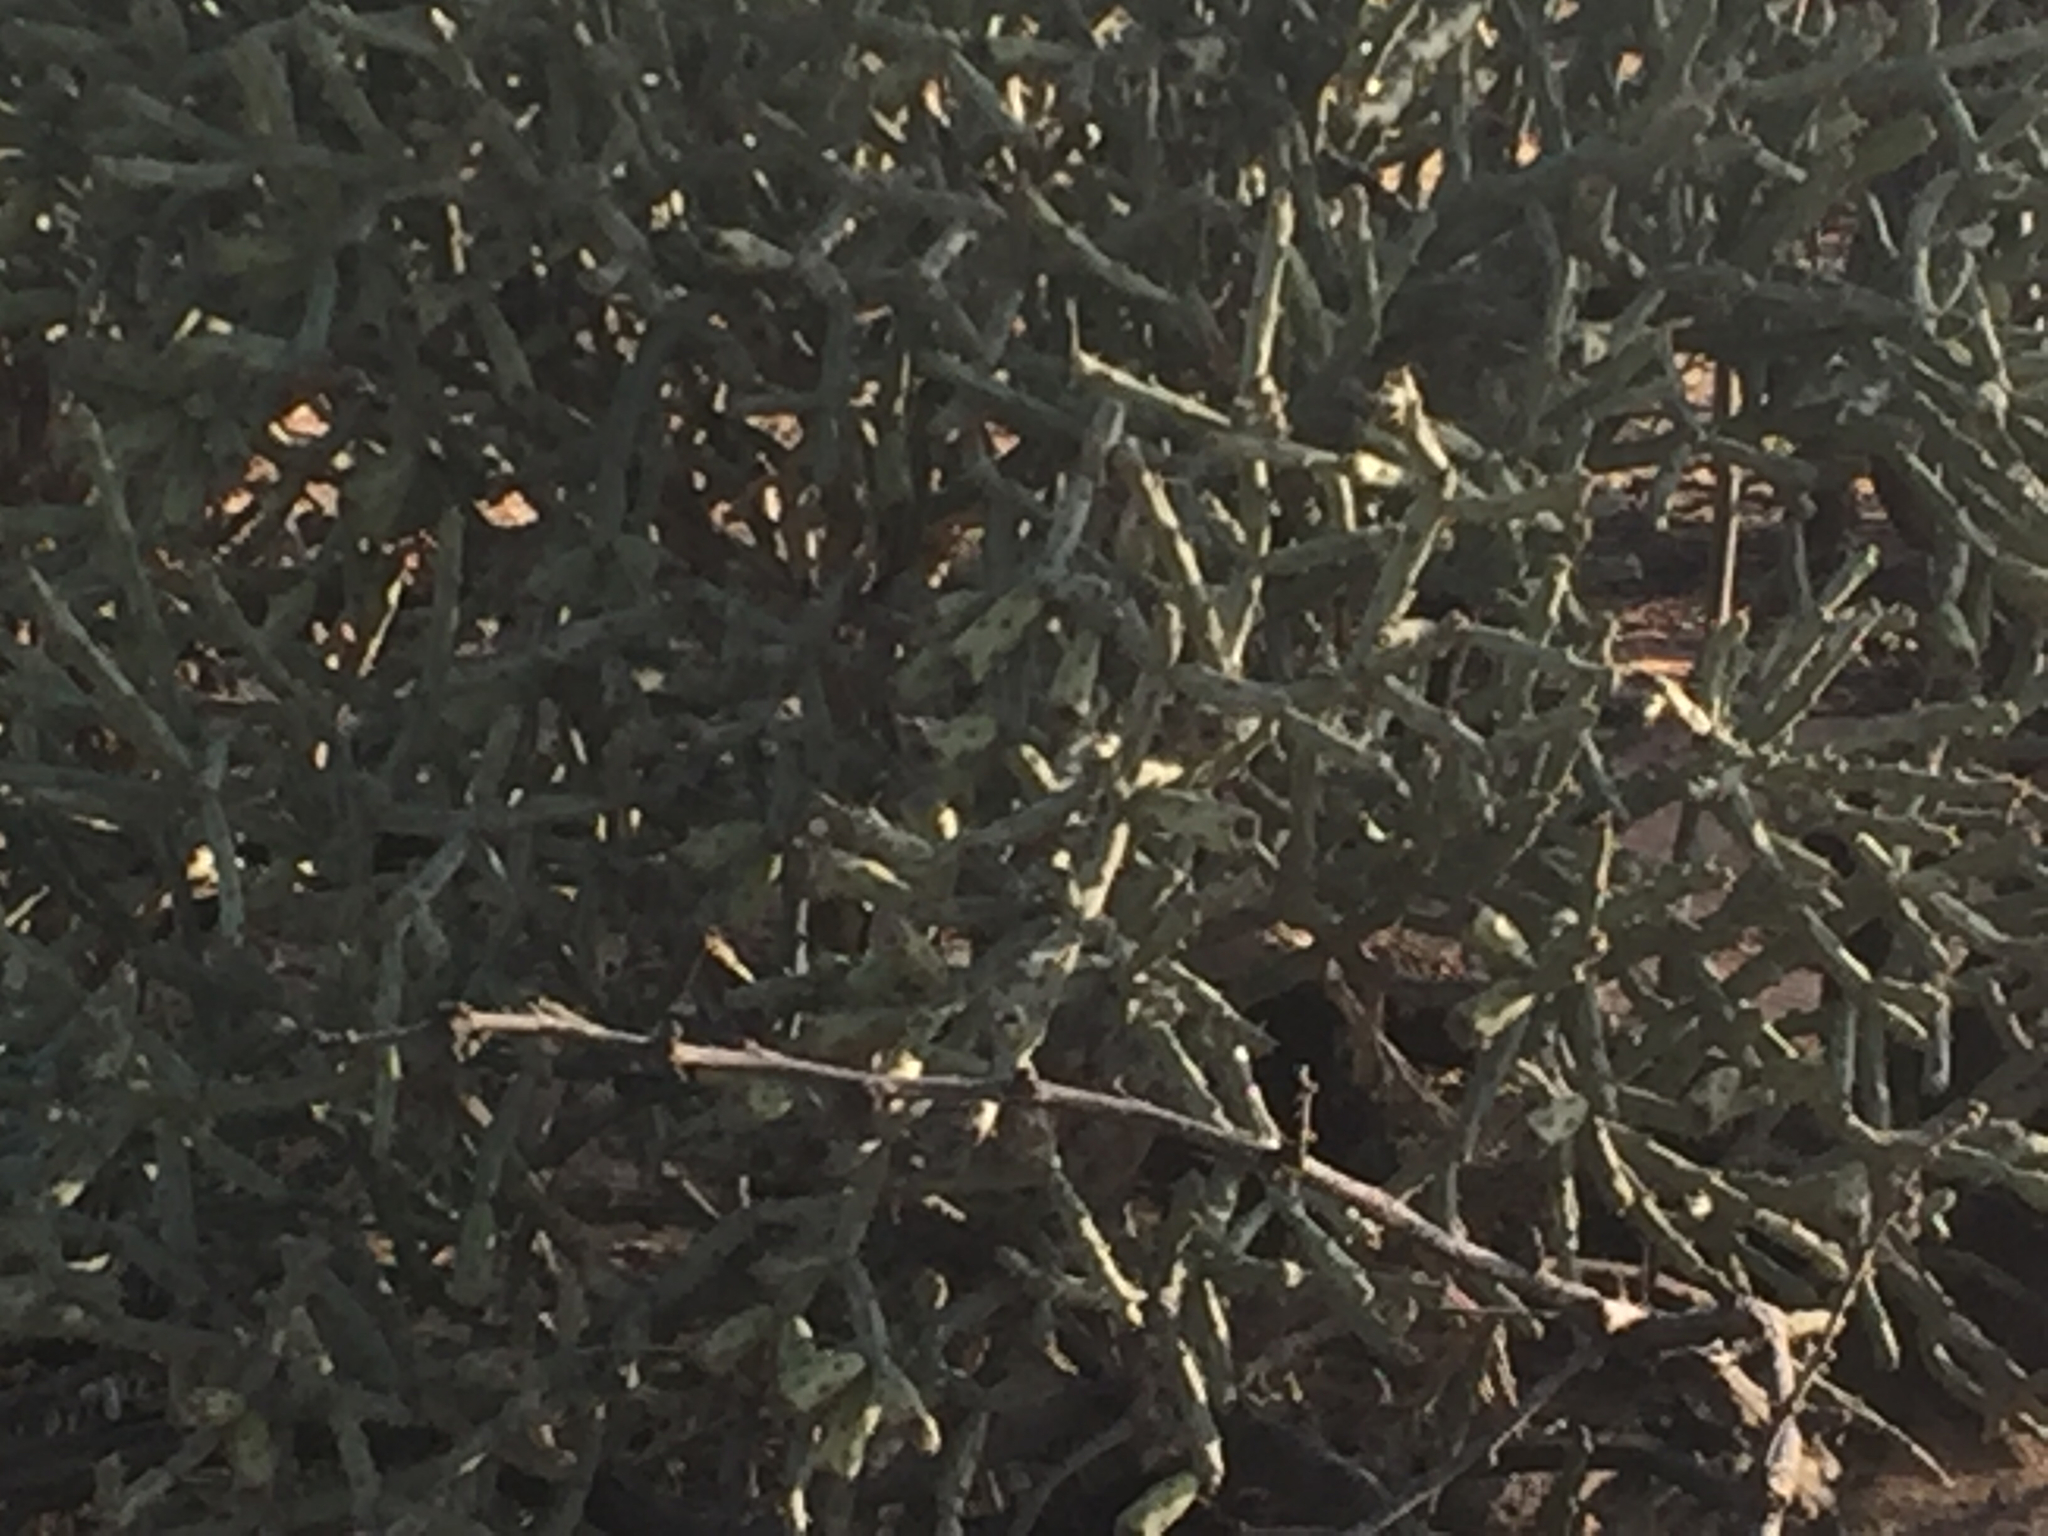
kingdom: Plantae
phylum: Tracheophyta
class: Magnoliopsida
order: Caryophyllales
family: Cactaceae
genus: Cylindropuntia
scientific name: Cylindropuntia arbuscula
